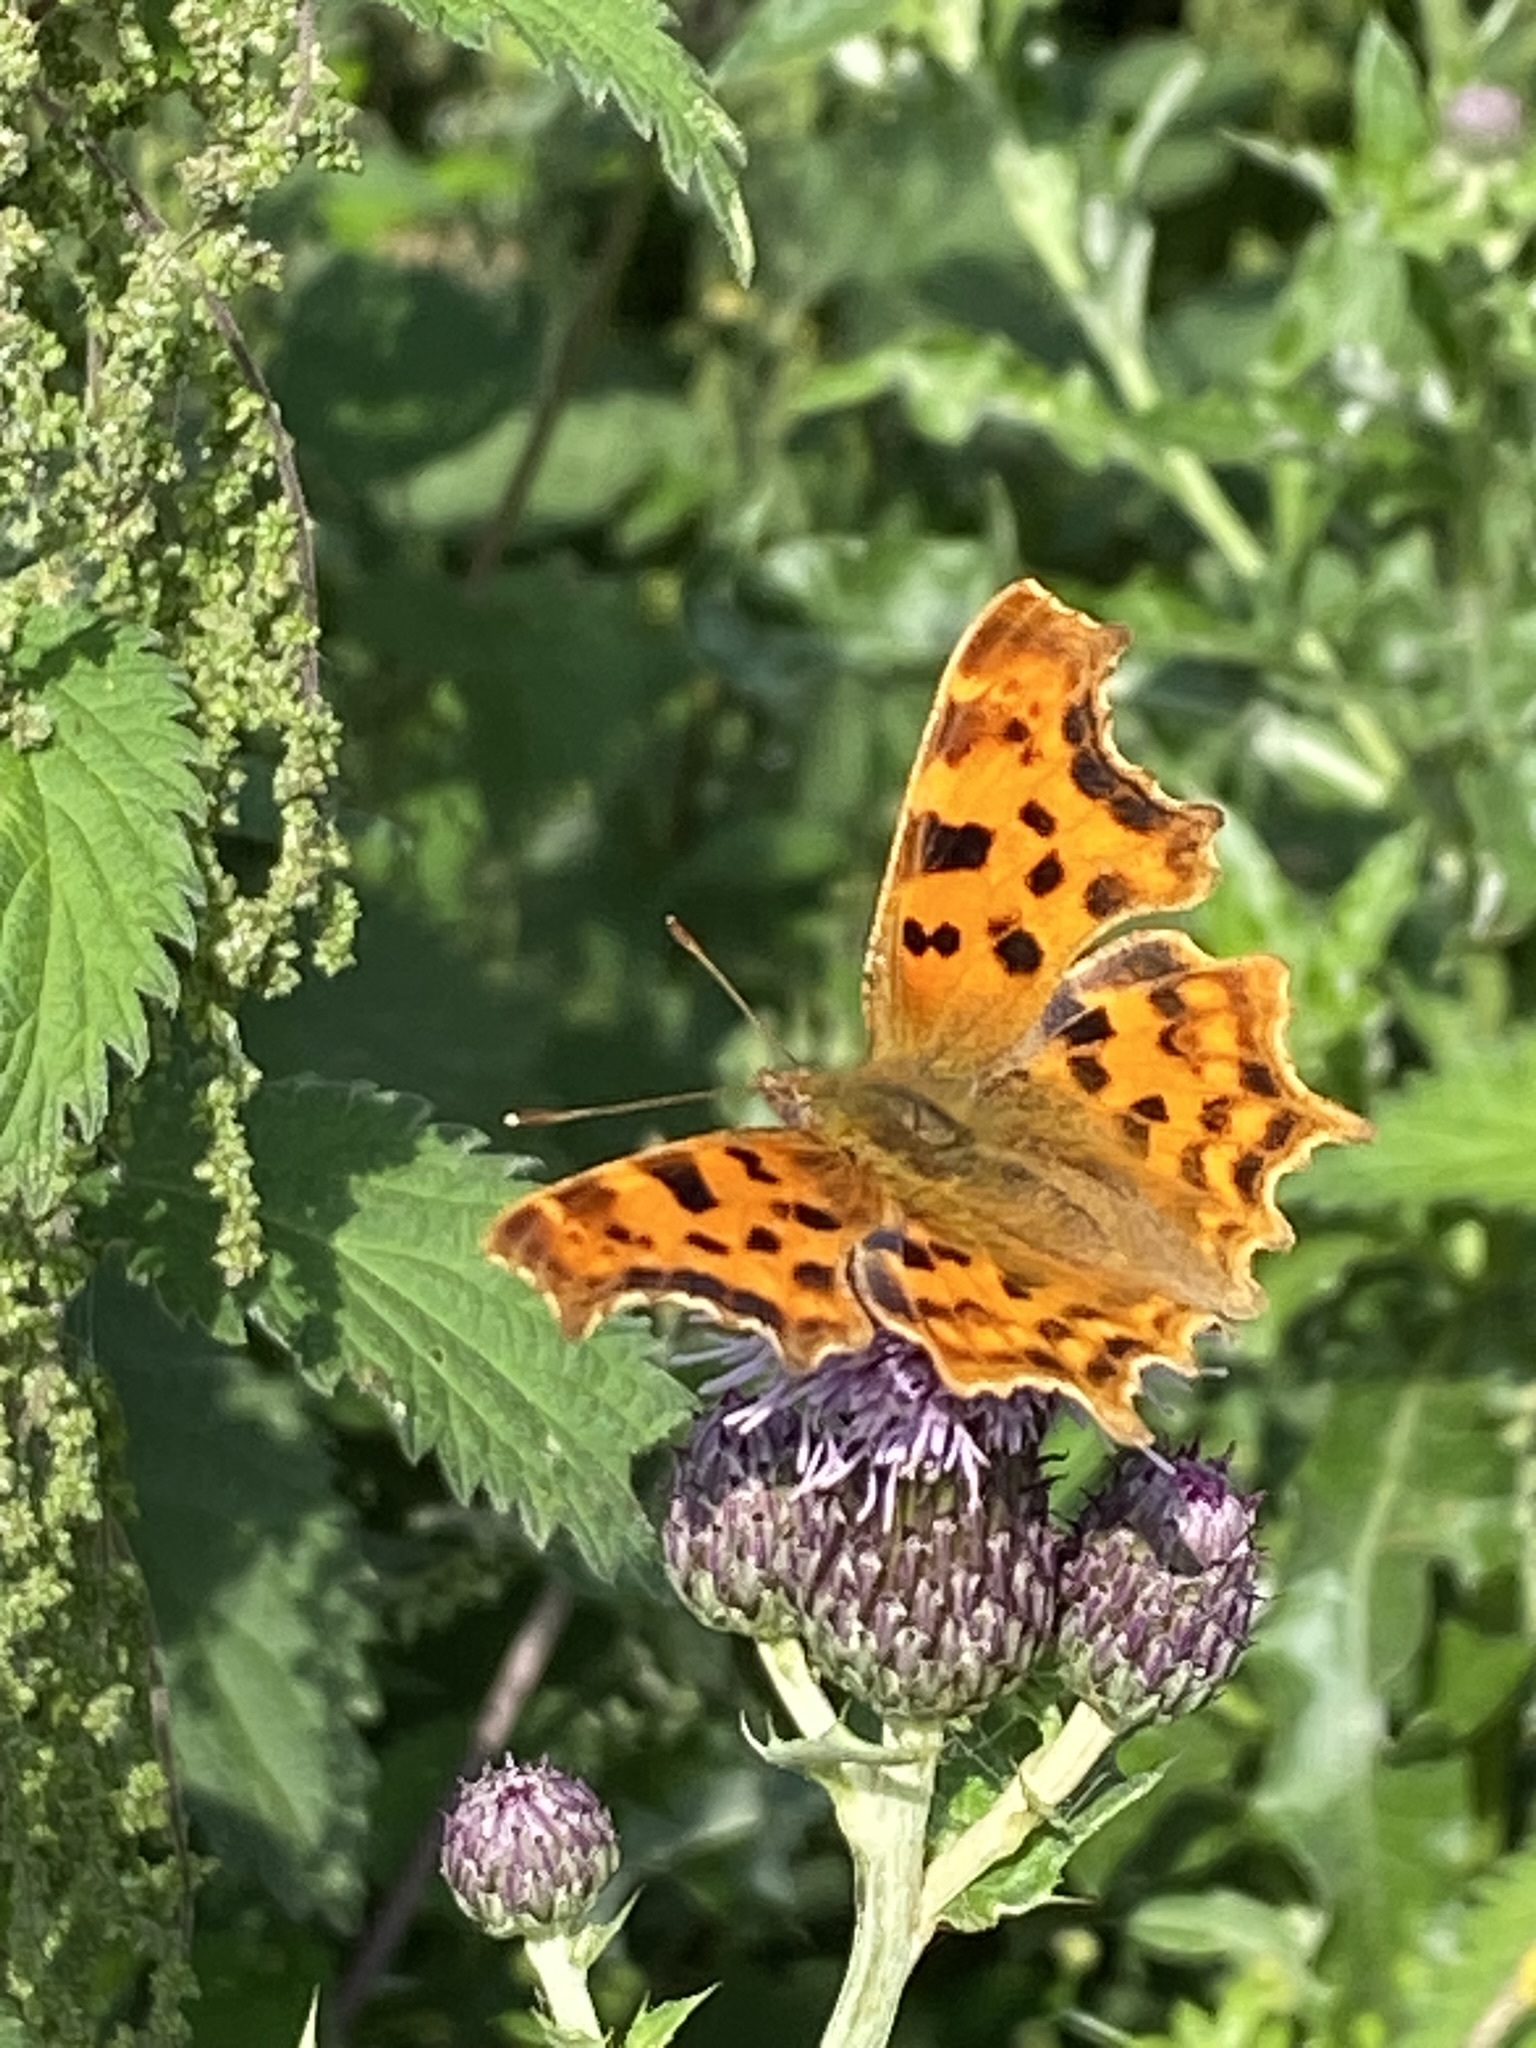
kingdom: Animalia
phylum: Arthropoda
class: Insecta
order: Lepidoptera
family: Nymphalidae
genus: Polygonia
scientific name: Polygonia c-album
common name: Comma
